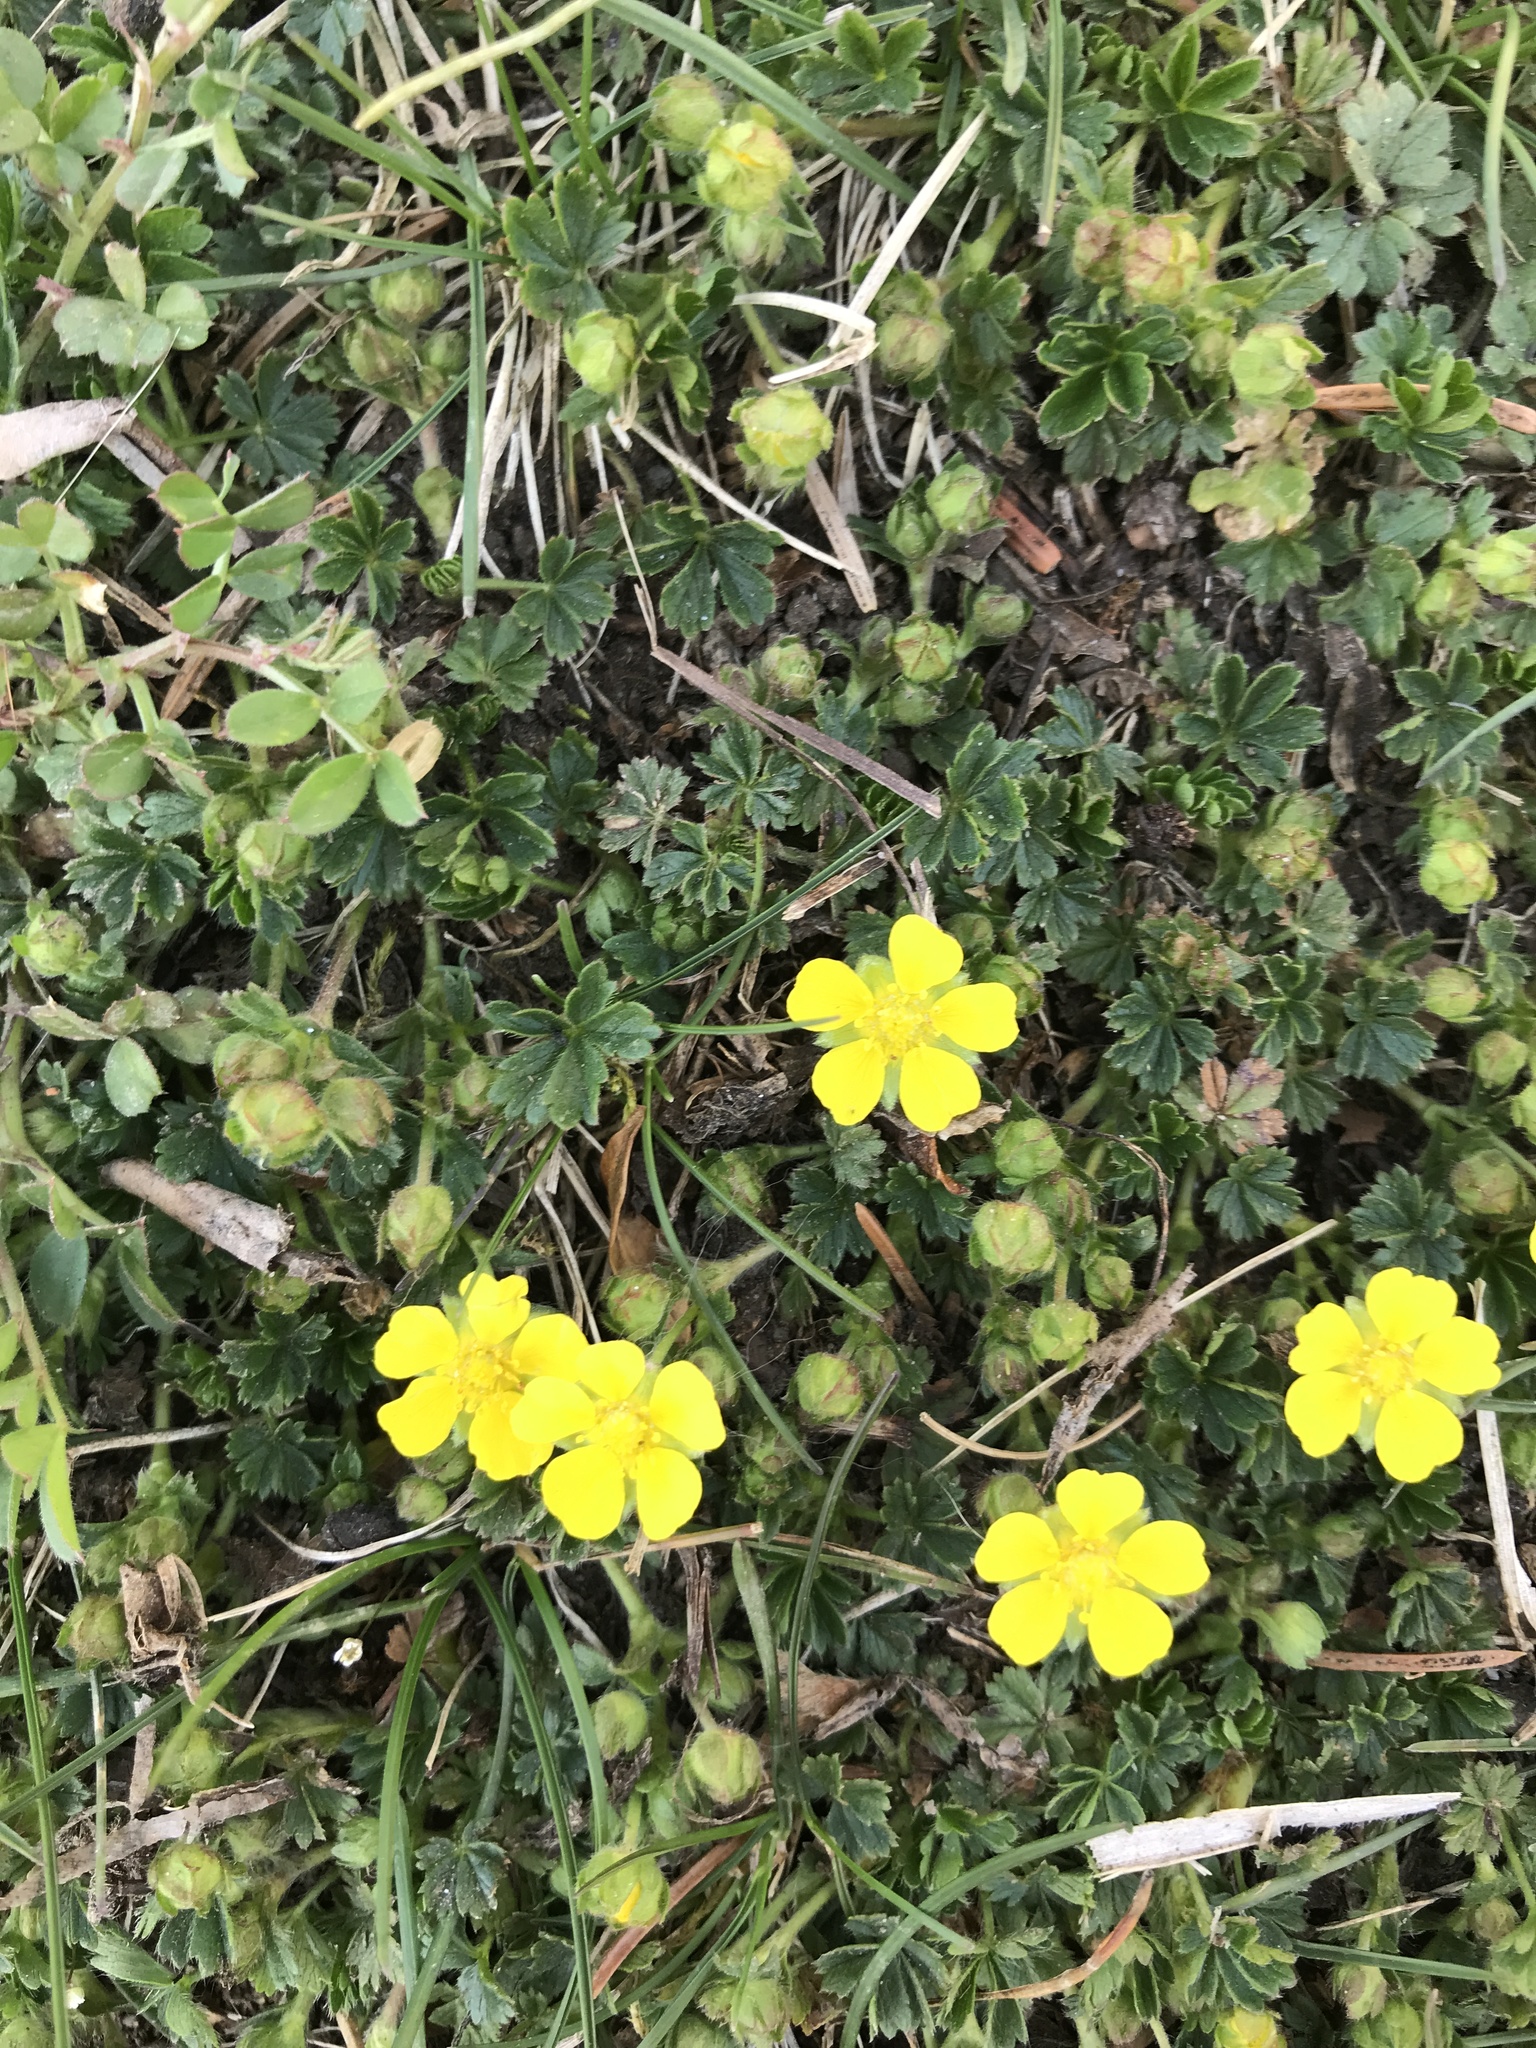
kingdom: Plantae
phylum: Tracheophyta
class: Magnoliopsida
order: Rosales
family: Rosaceae
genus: Potentilla
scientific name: Potentilla verna
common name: Spring cinquefoil
